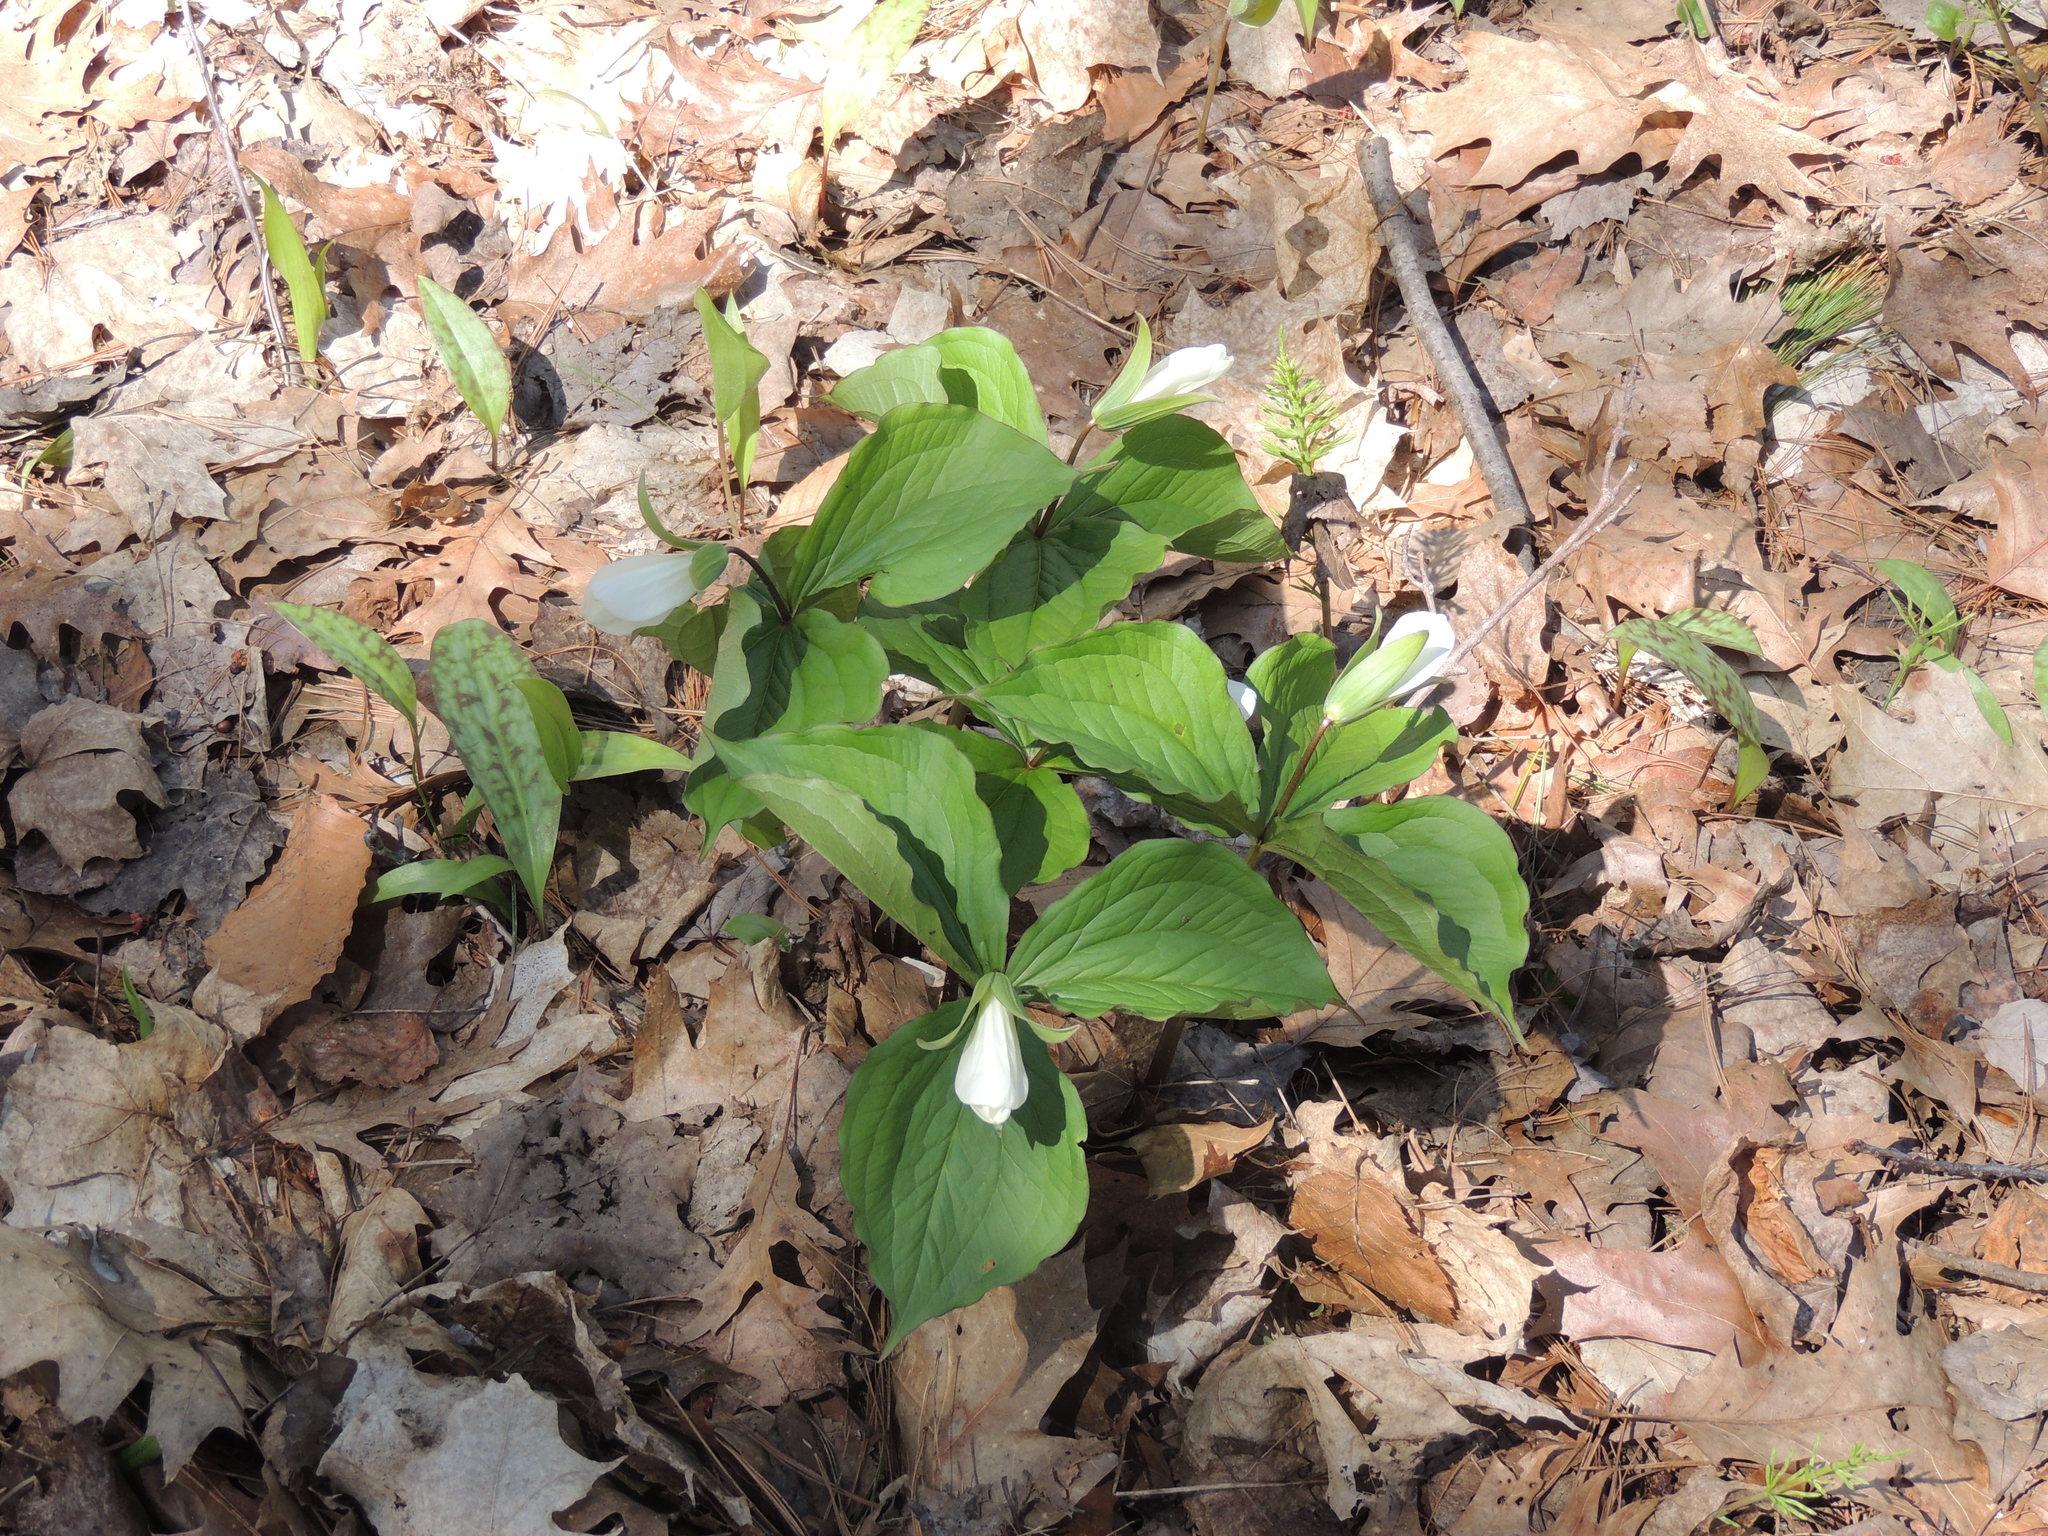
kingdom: Plantae
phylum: Tracheophyta
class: Liliopsida
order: Liliales
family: Melanthiaceae
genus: Trillium
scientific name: Trillium grandiflorum
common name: Great white trillium
